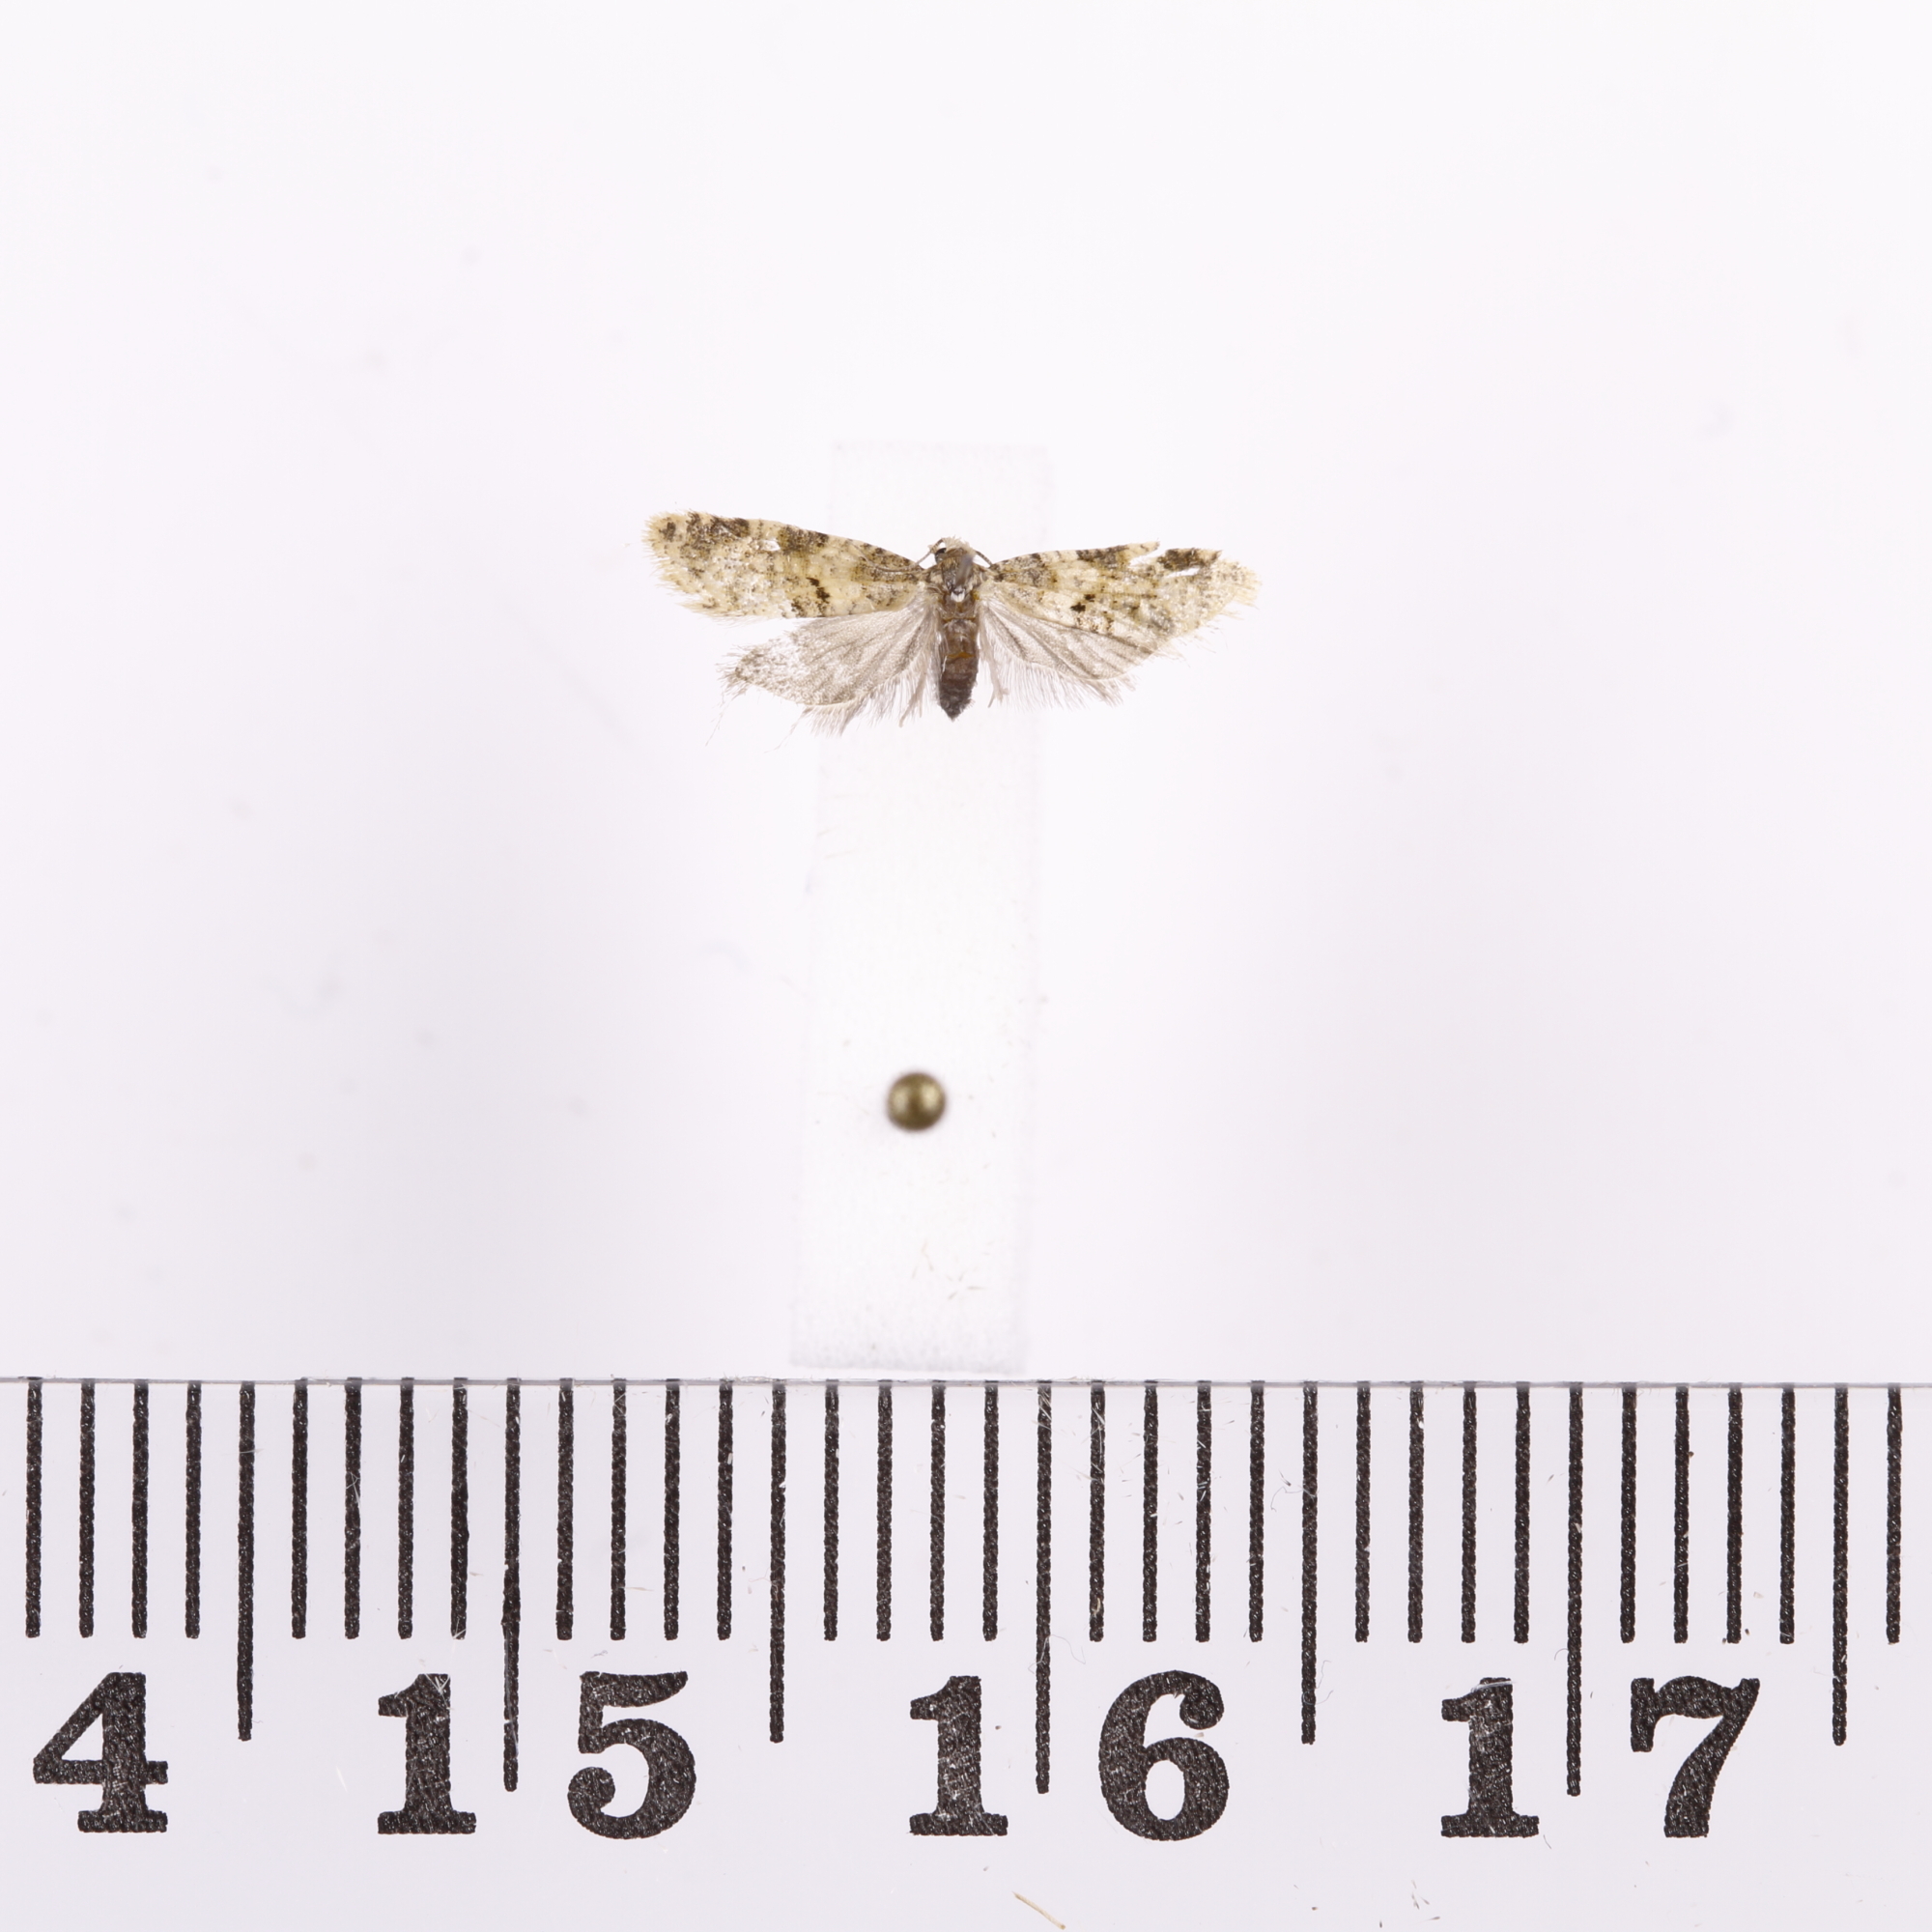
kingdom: Animalia
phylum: Arthropoda
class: Insecta
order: Lepidoptera
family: Tortricidae
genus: Dipterina
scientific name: Dipterina imbriferana
